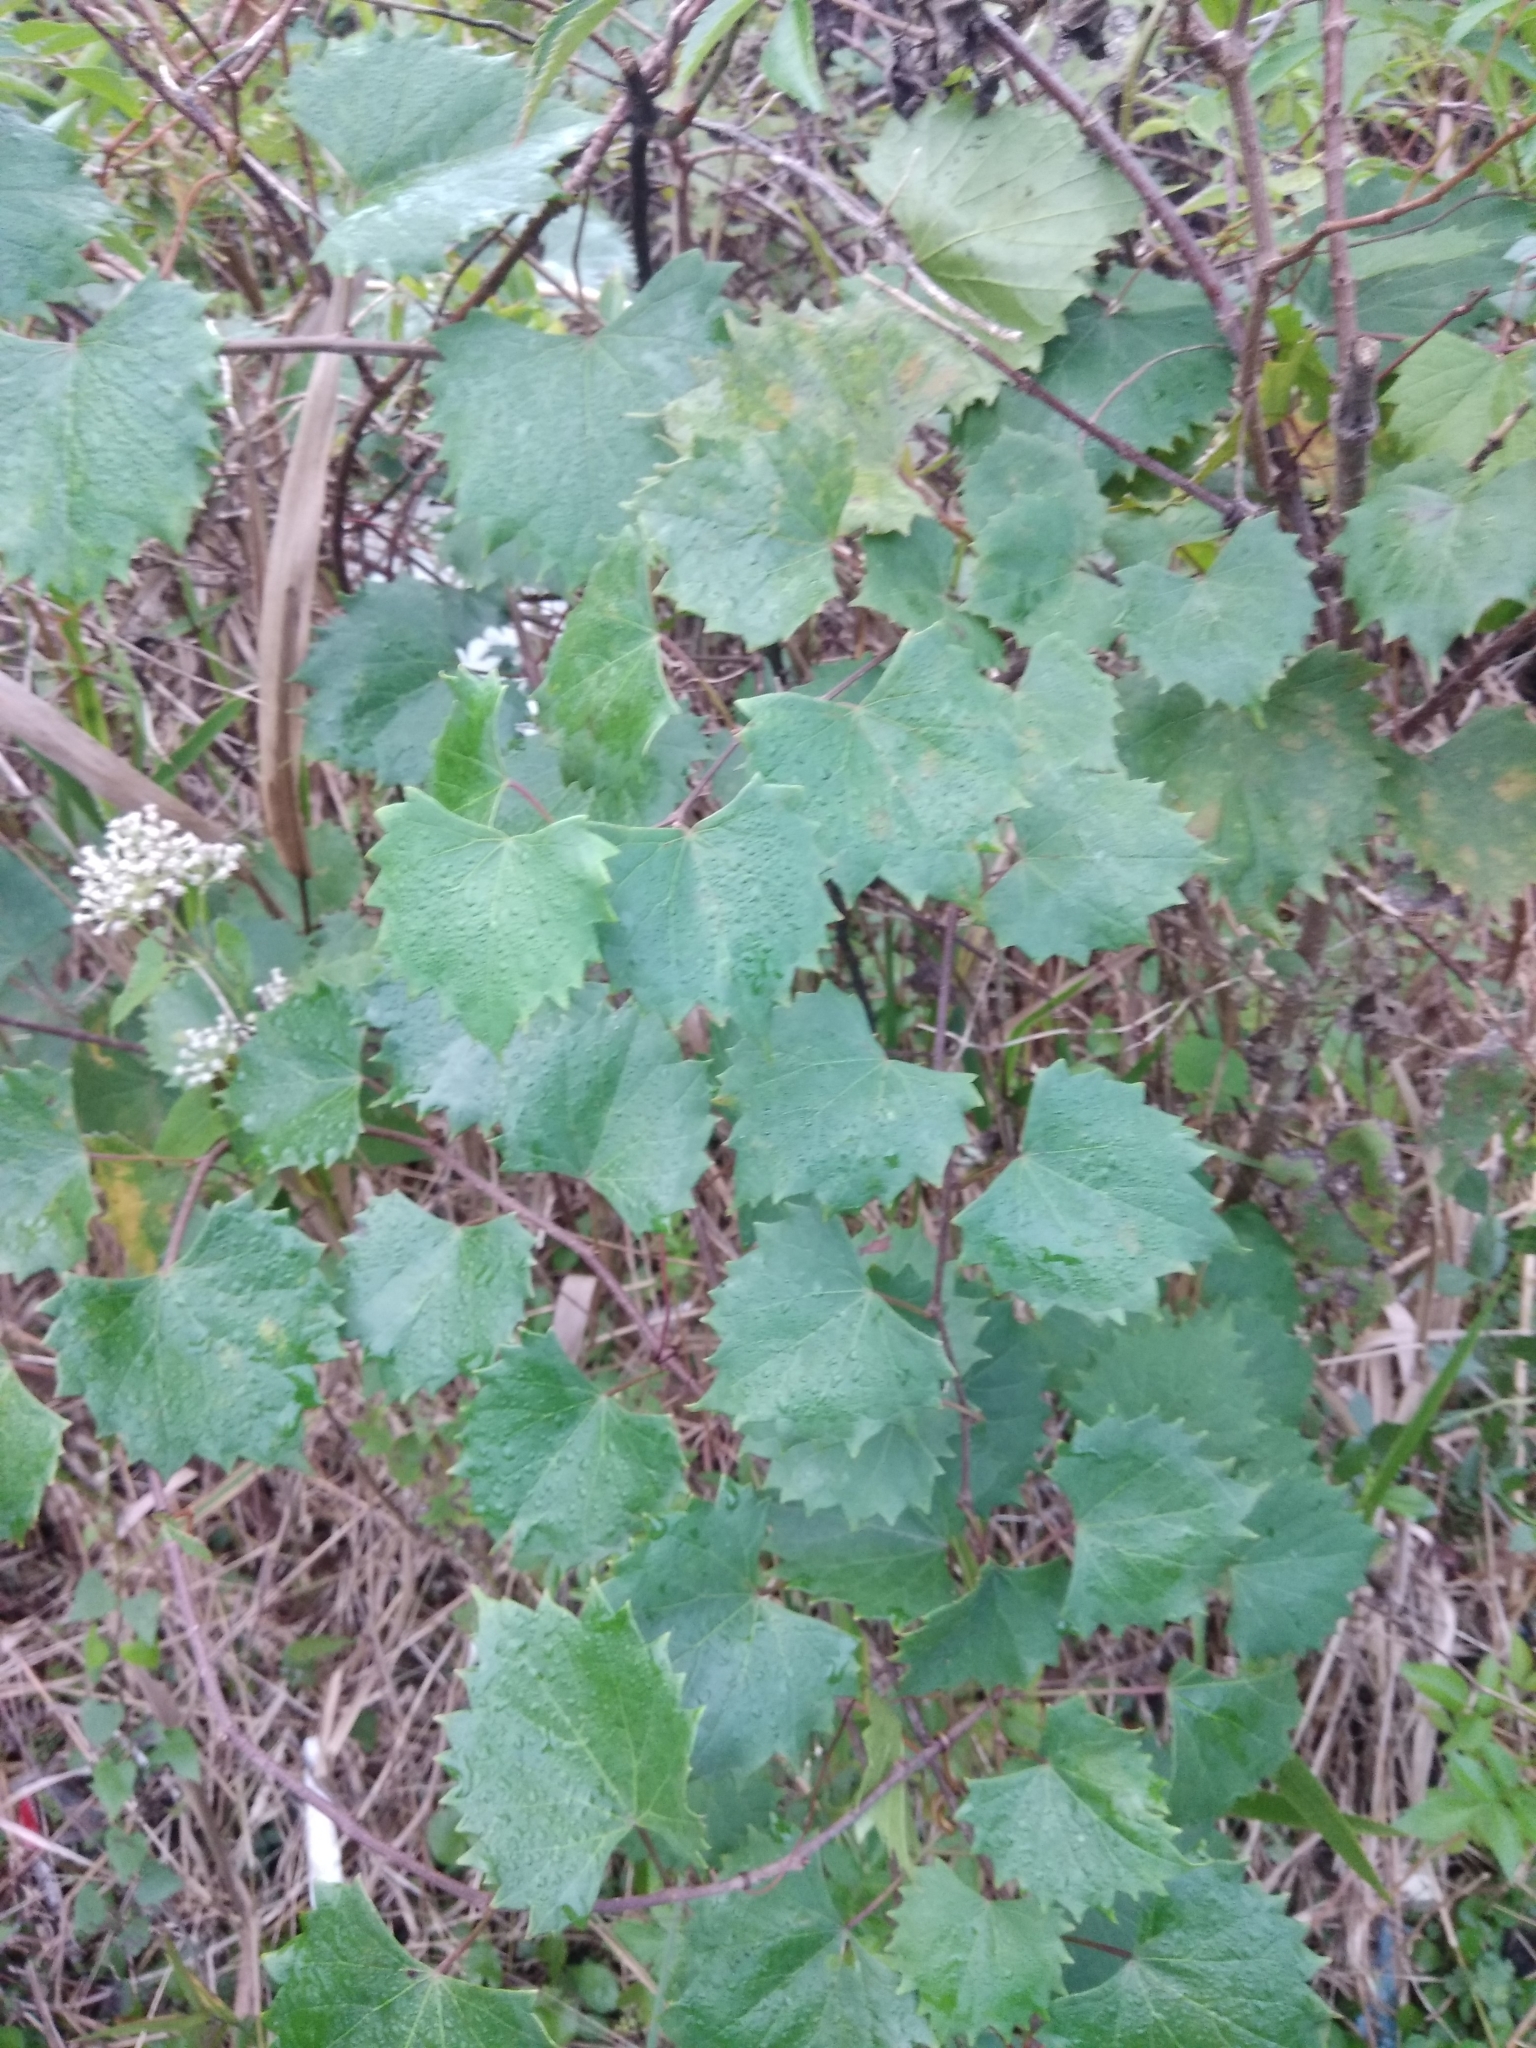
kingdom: Plantae
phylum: Tracheophyta
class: Magnoliopsida
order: Vitales
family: Vitaceae
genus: Vitis
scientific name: Vitis rotundifolia
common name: Muscadine grape
